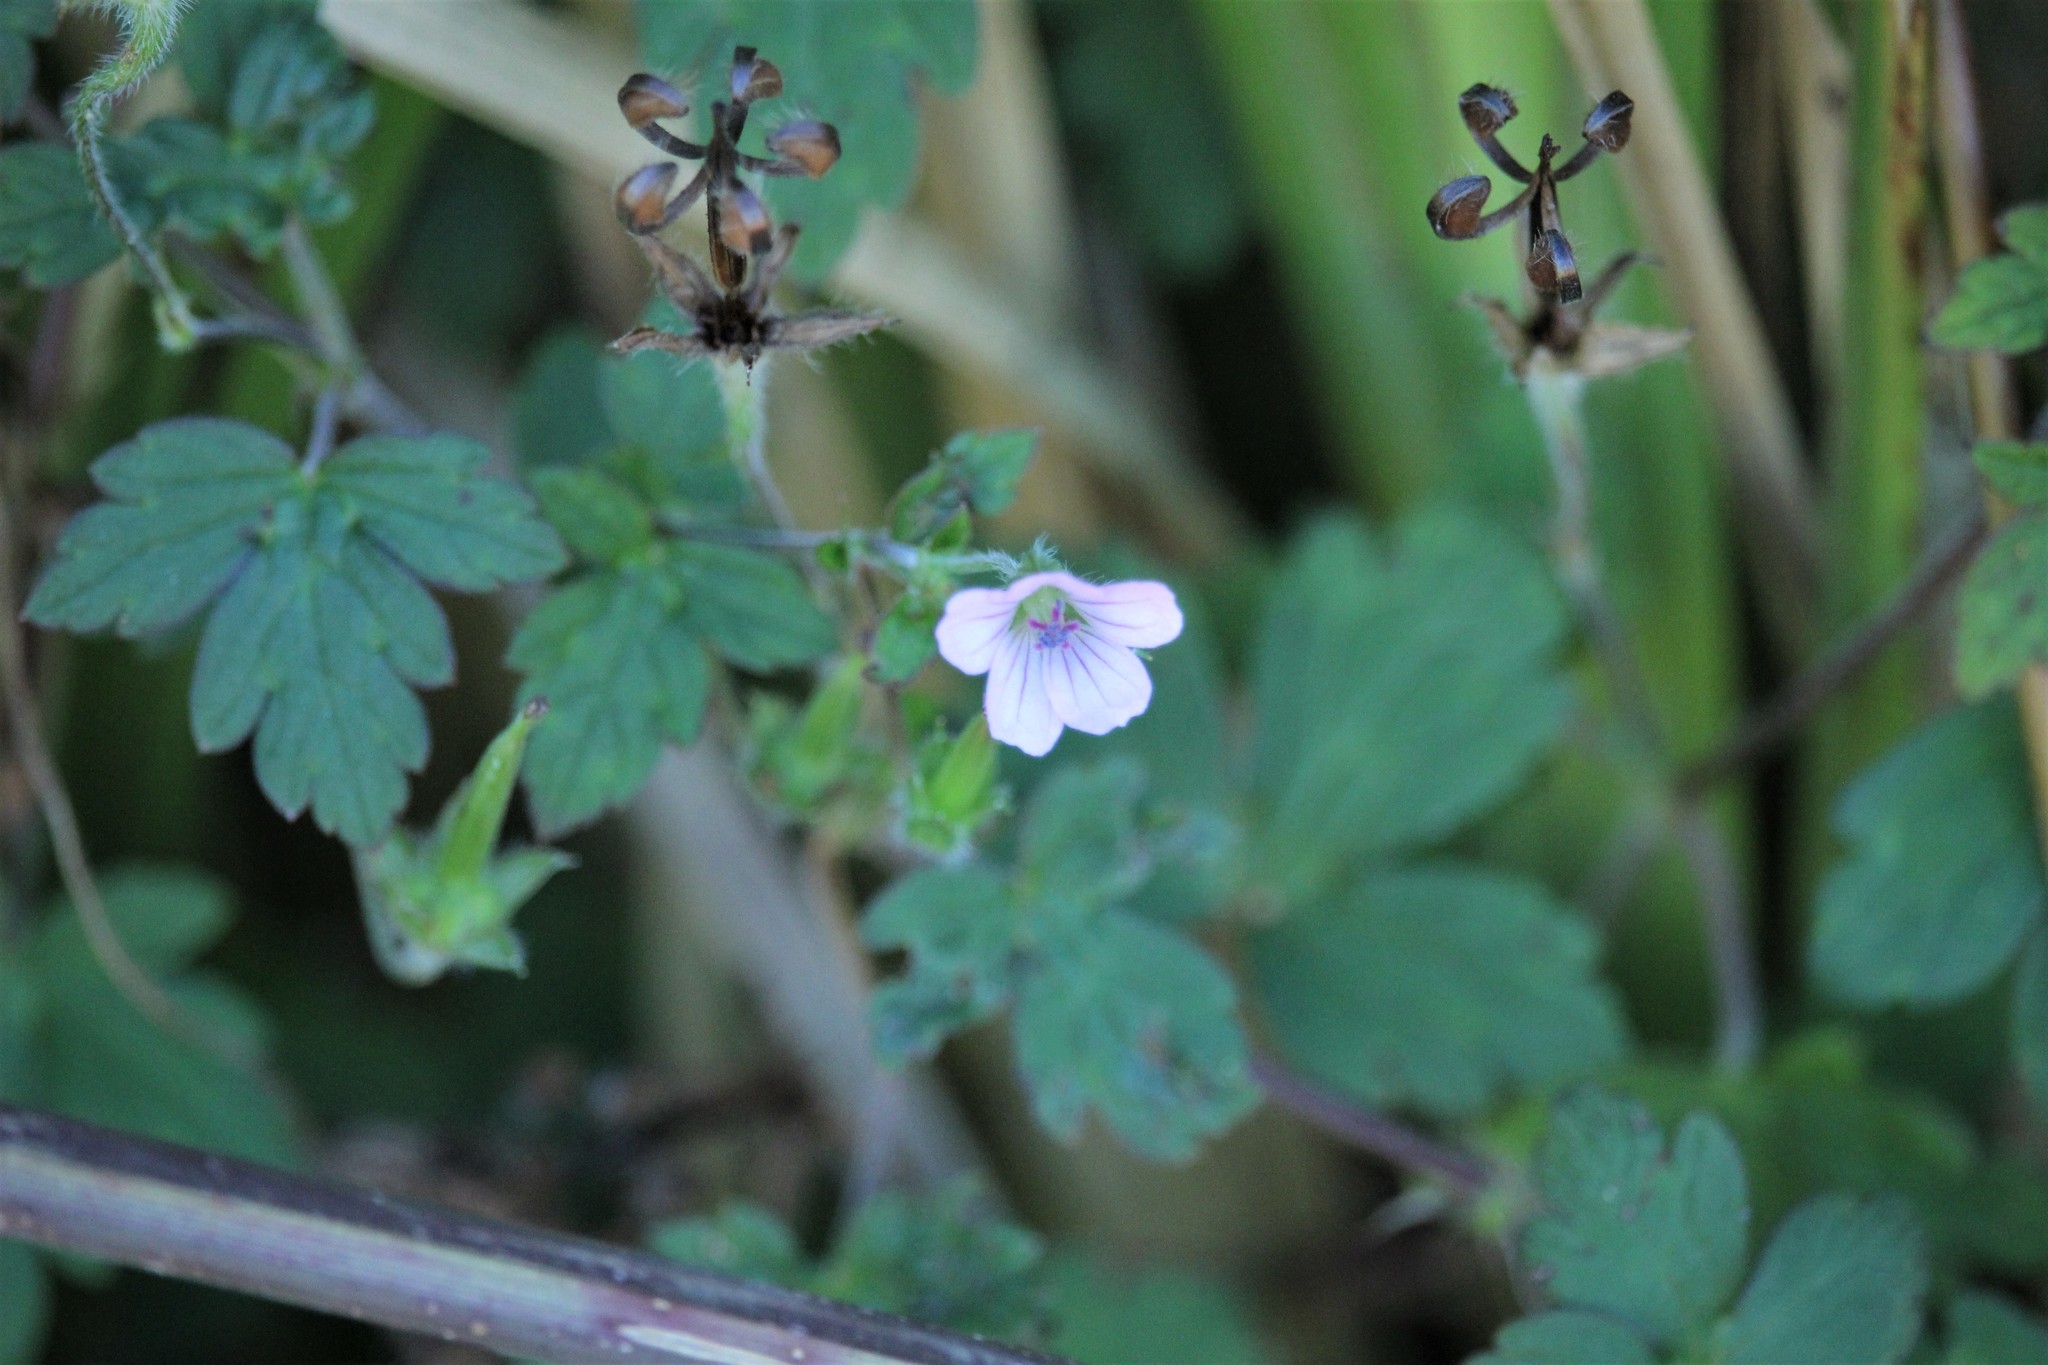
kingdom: Plantae
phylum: Tracheophyta
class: Magnoliopsida
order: Geraniales
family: Geraniaceae
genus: Geranium
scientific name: Geranium nepalense
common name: Nepalese crane's-bill
